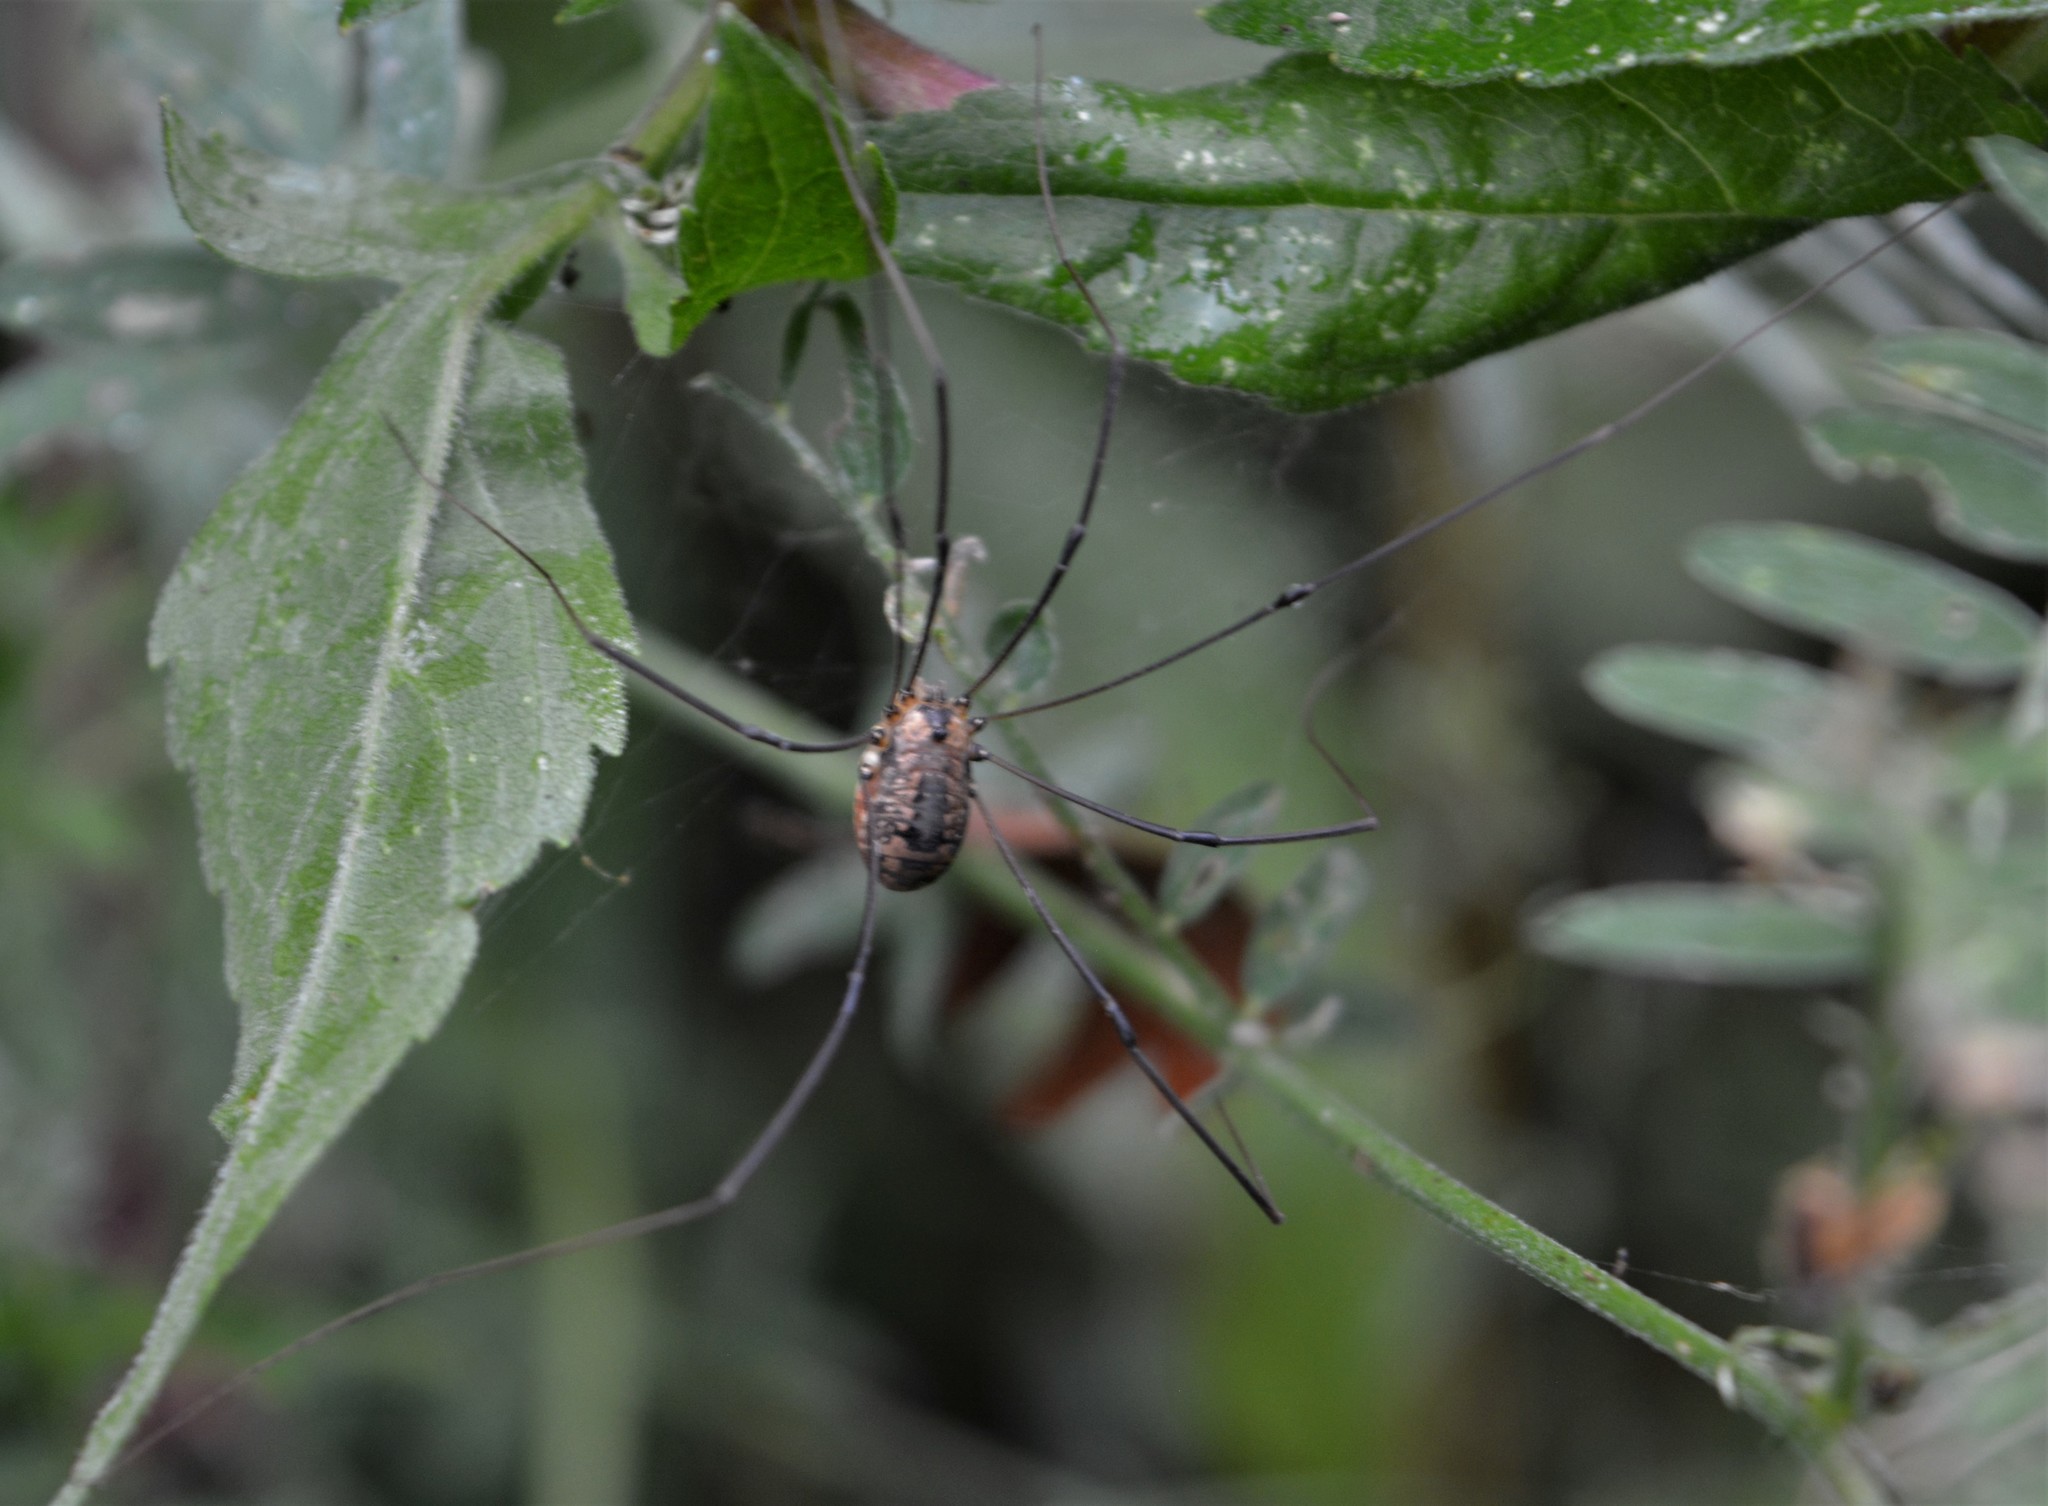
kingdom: Animalia
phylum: Arthropoda
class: Arachnida
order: Opiliones
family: Sclerosomatidae
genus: Leiobunum
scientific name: Leiobunum rotundum
